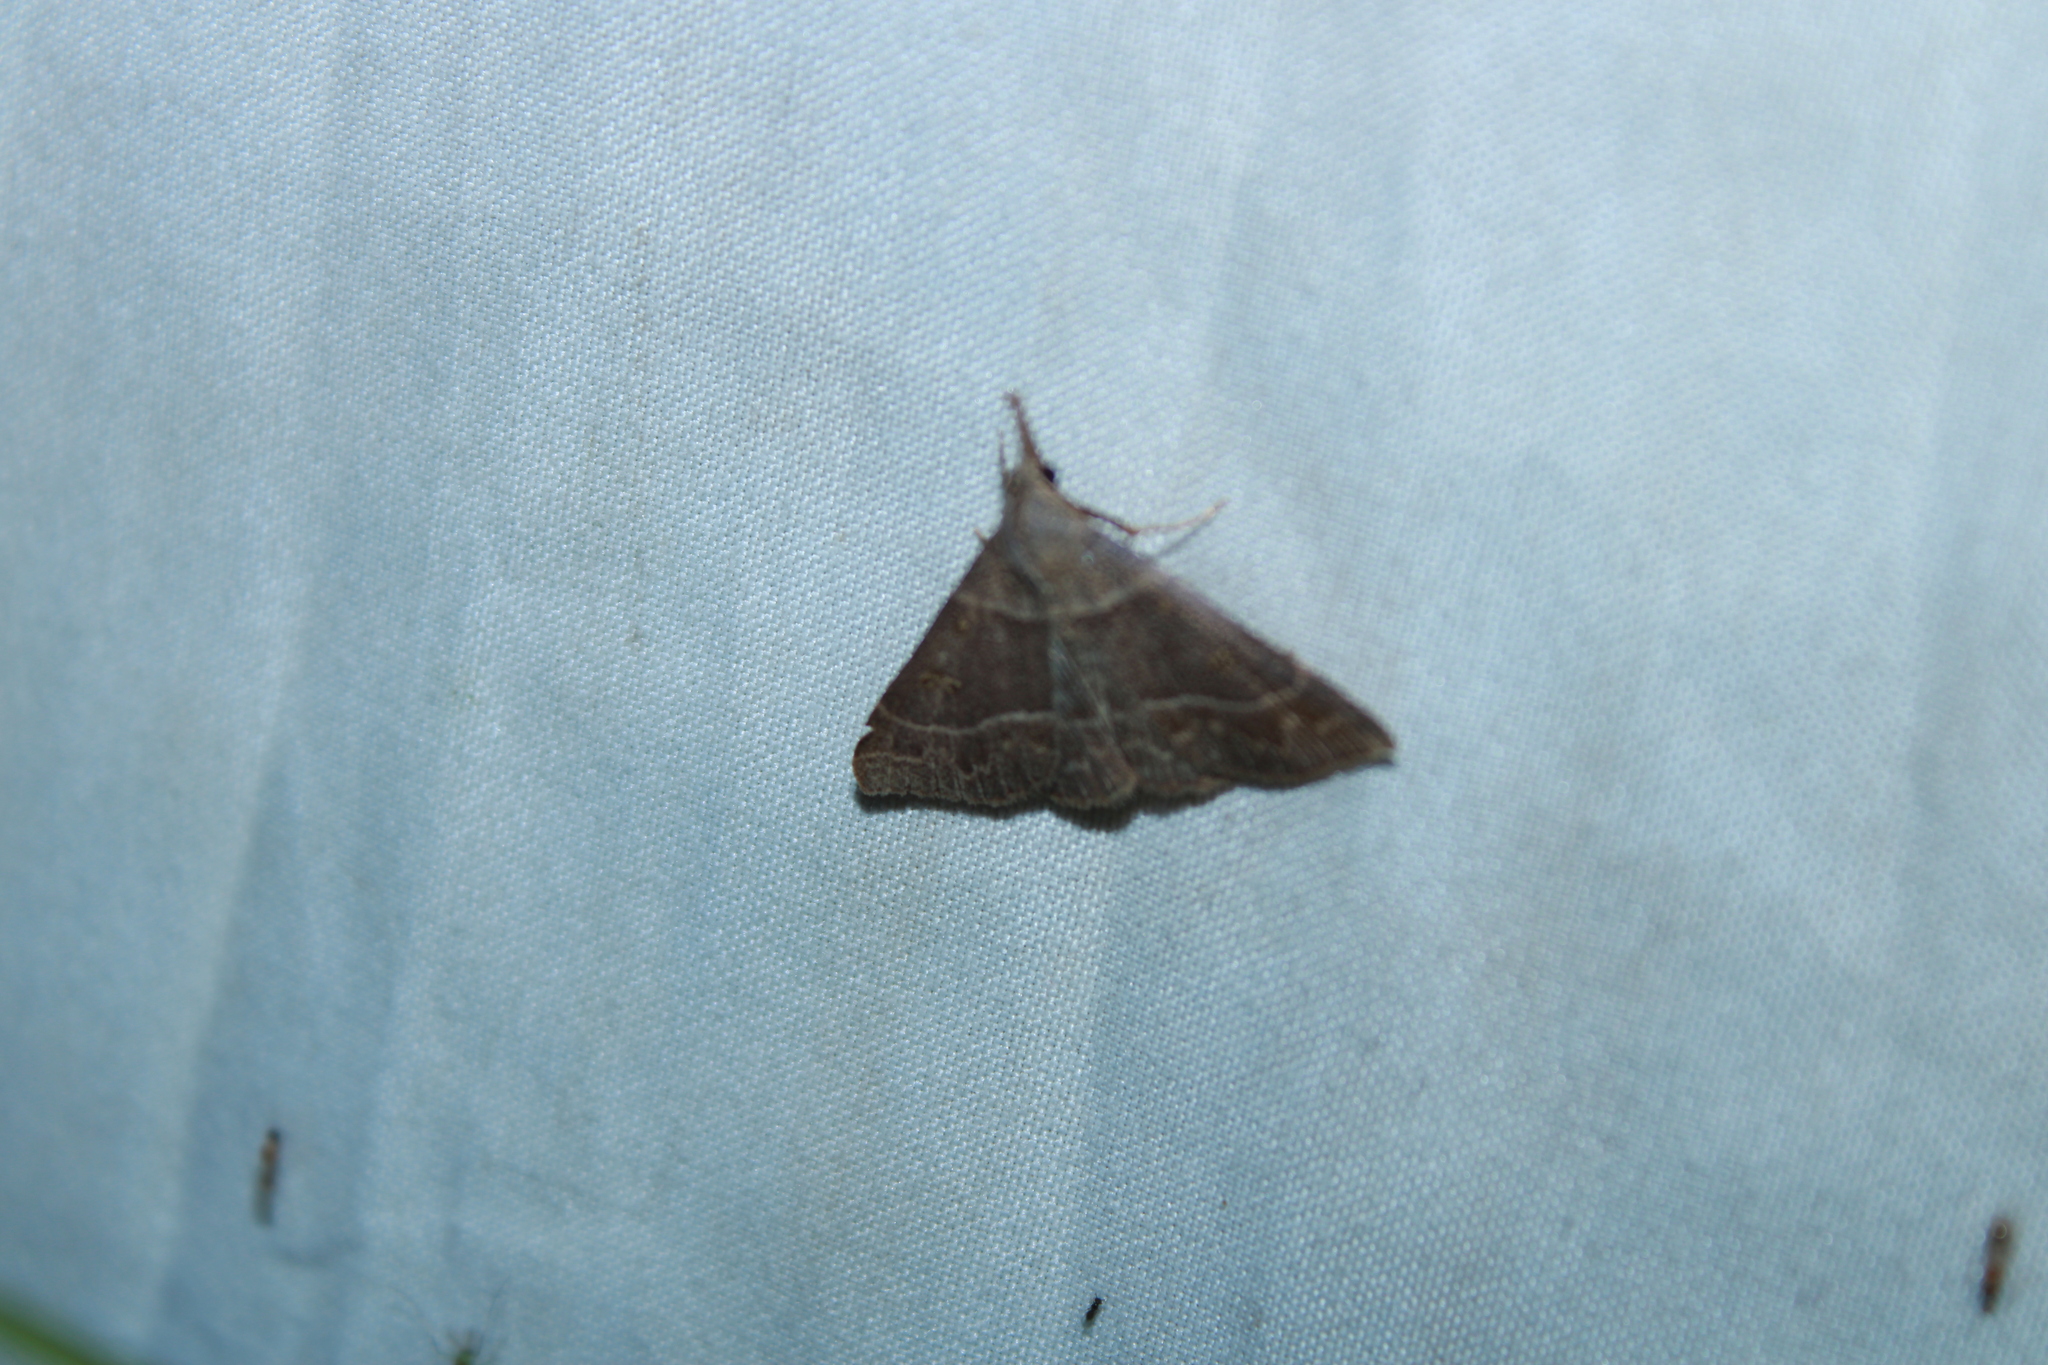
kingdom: Animalia
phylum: Arthropoda
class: Insecta
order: Lepidoptera
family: Erebidae
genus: Renia
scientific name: Renia flavipunctalis
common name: Yellow-spotted renia moth
